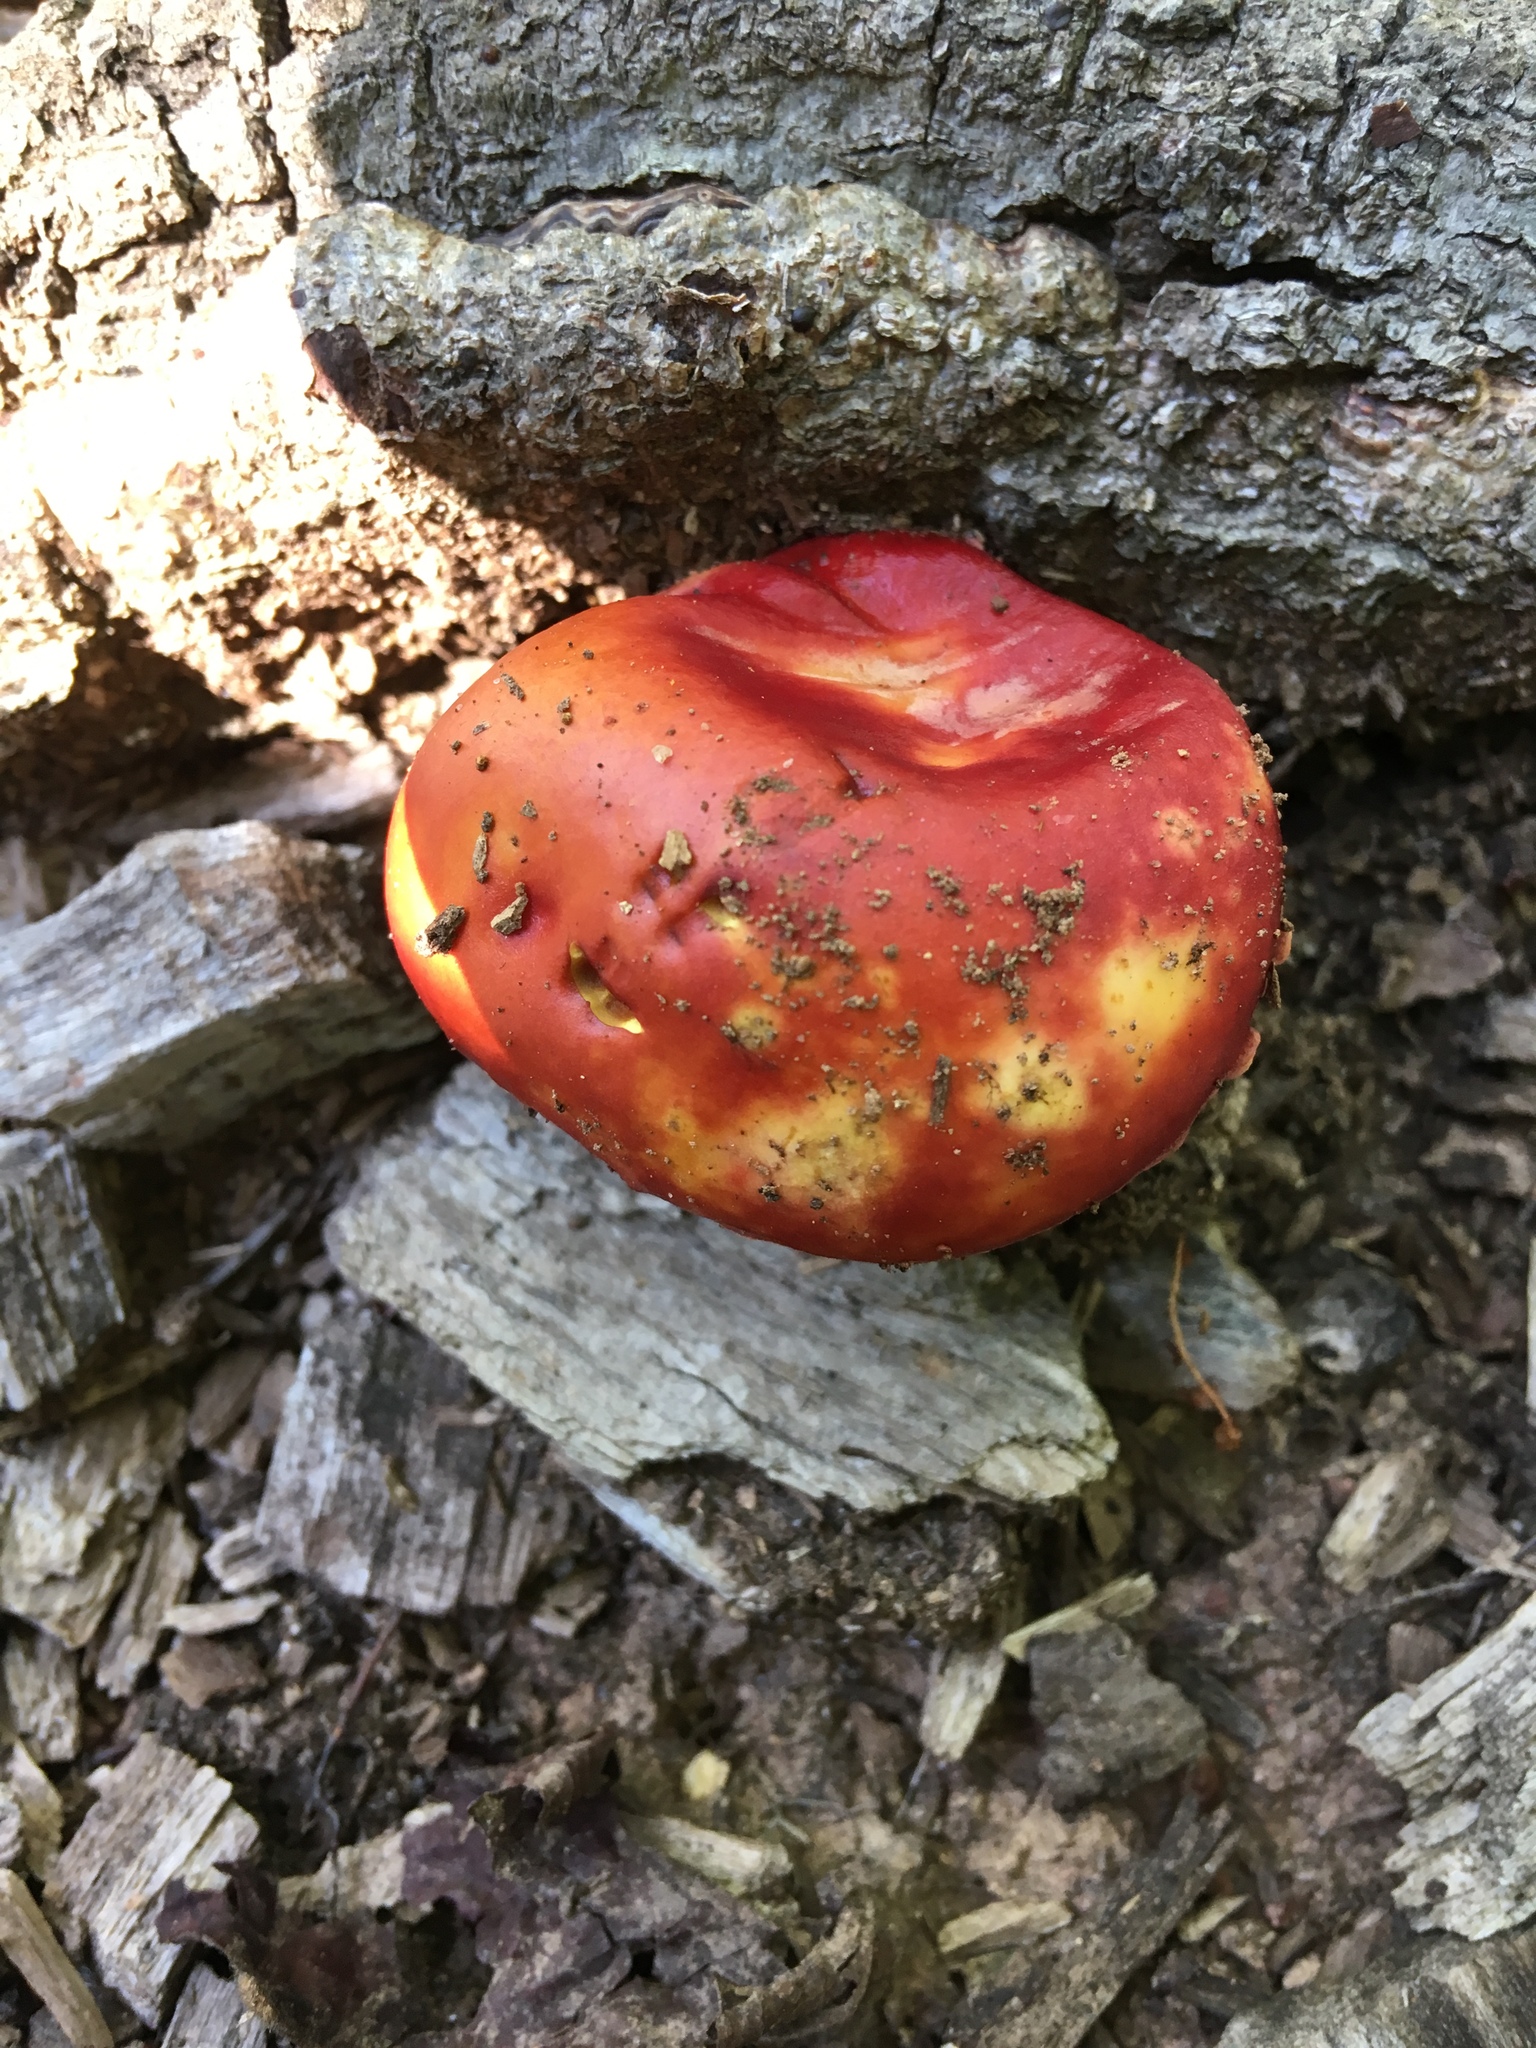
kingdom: Fungi
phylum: Basidiomycota
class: Agaricomycetes
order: Boletales
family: Boletaceae
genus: Butyriboletus
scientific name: Butyriboletus frostii
